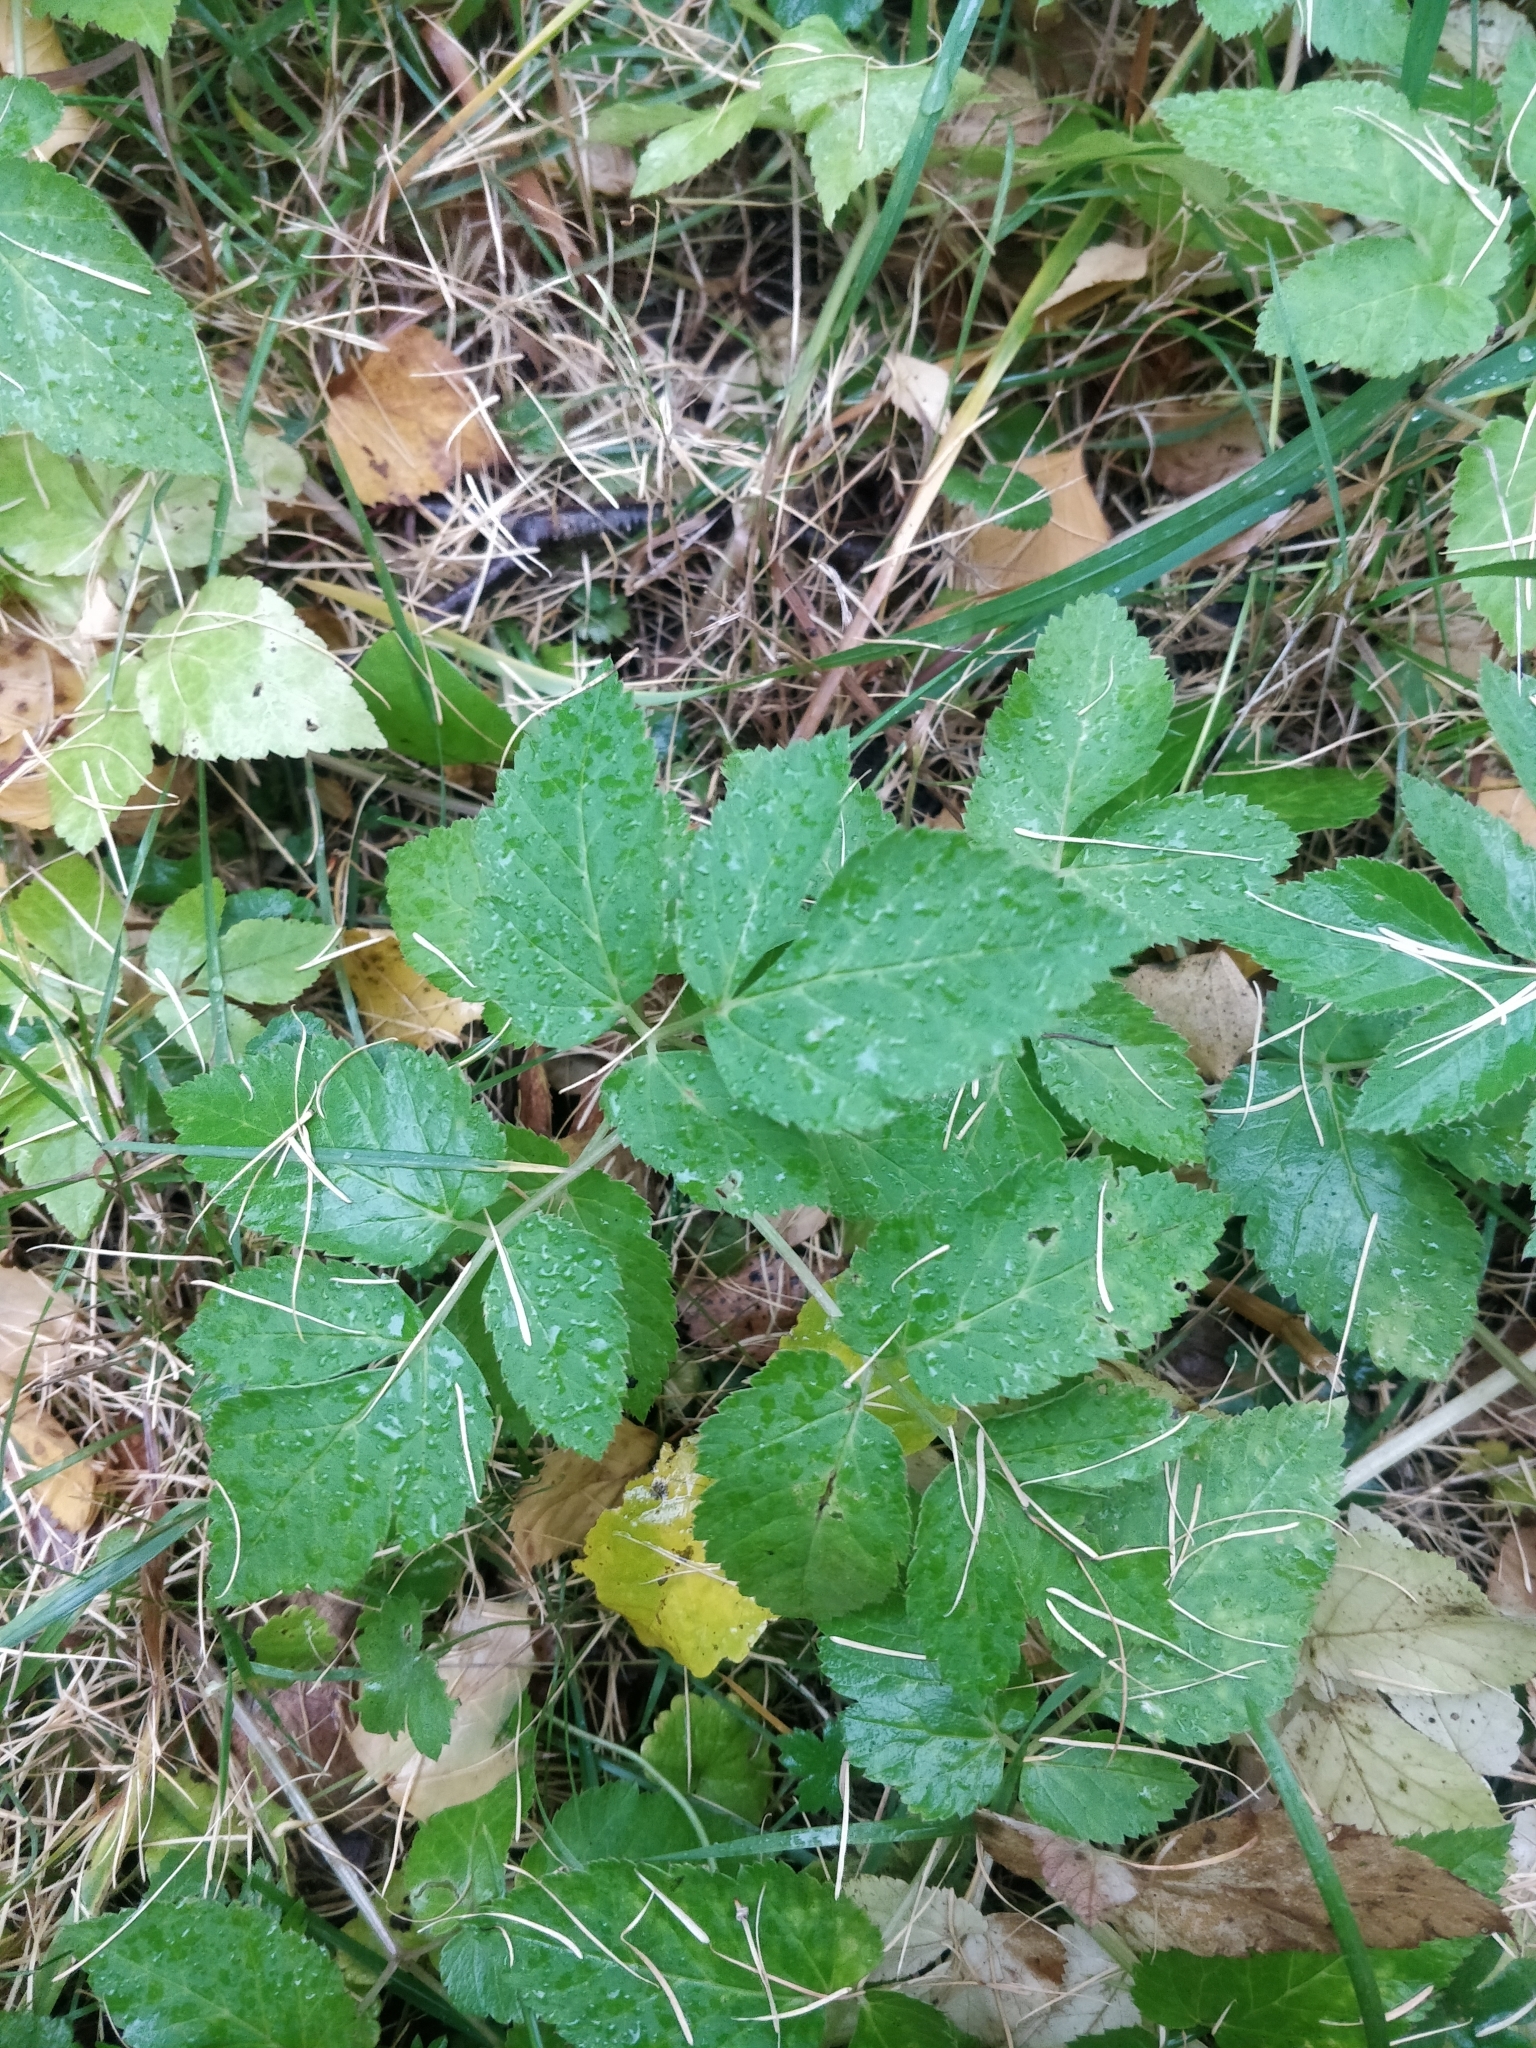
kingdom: Plantae
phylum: Tracheophyta
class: Magnoliopsida
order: Apiales
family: Apiaceae
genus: Aegopodium
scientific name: Aegopodium podagraria
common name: Ground-elder
